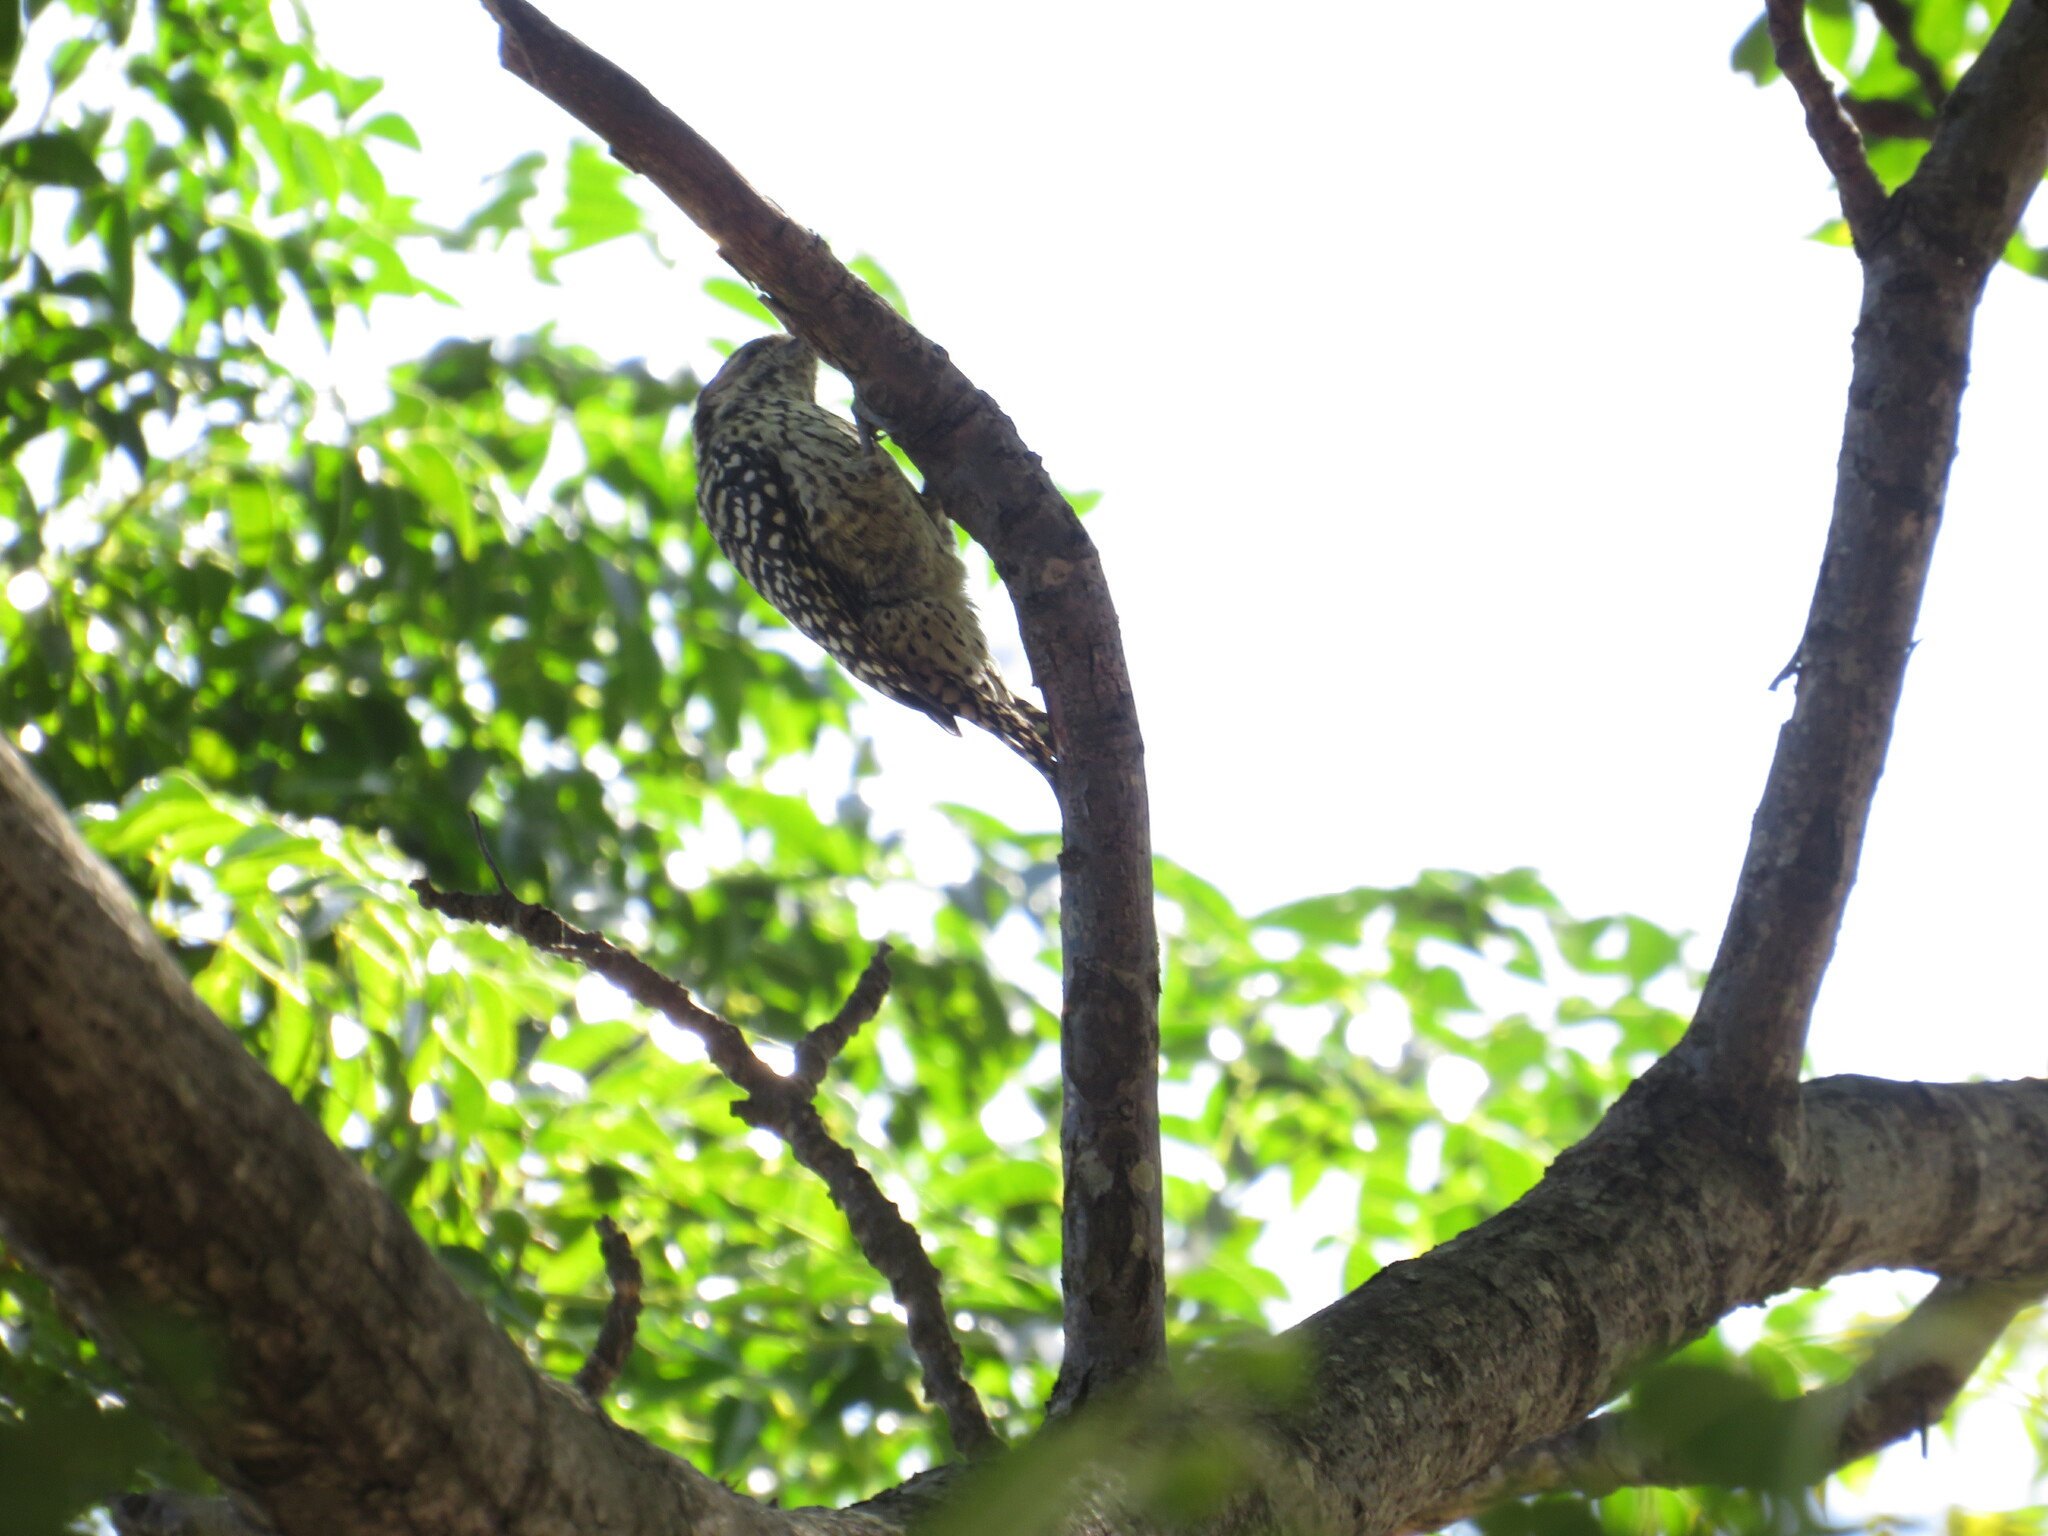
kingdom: Animalia
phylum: Chordata
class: Aves
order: Piciformes
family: Picidae
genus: Veniliornis
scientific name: Veniliornis mixtus
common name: Checkered woodpecker
